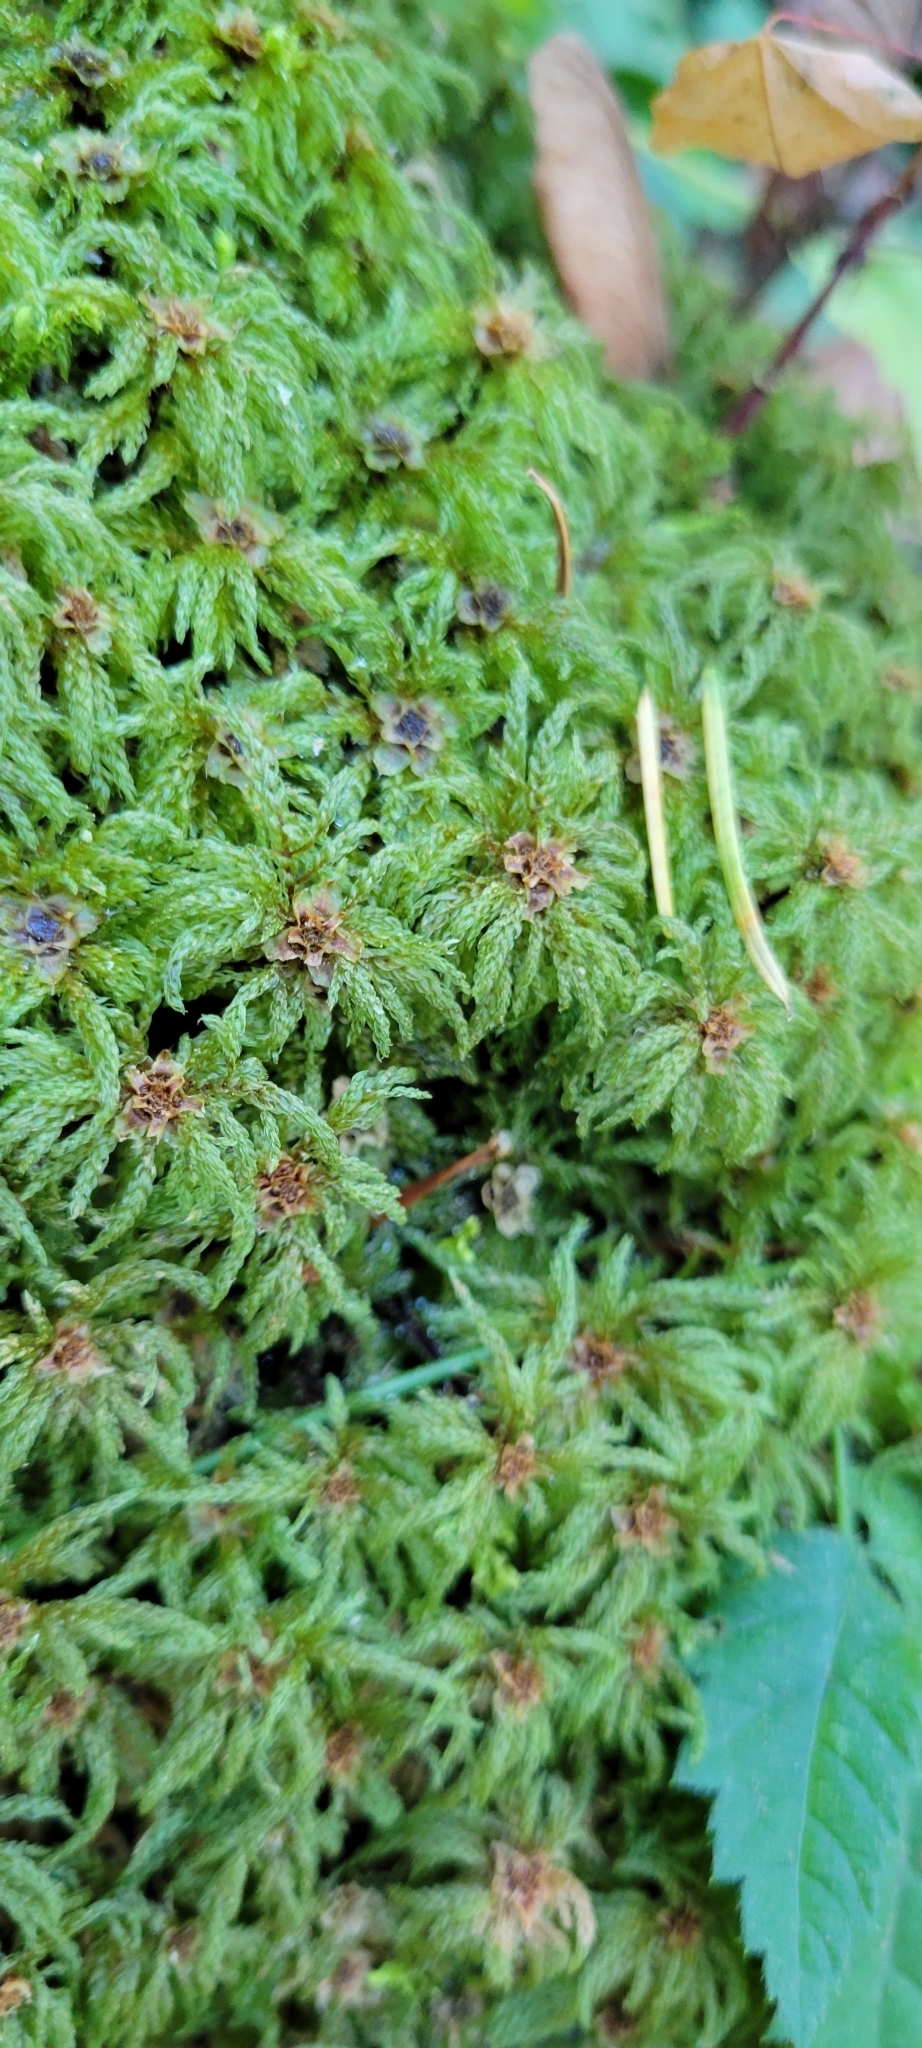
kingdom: Plantae
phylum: Bryophyta
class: Bryopsida
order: Bryales
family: Mniaceae
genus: Leucolepis
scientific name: Leucolepis acanthoneura
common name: Leucolepis umbrella moss
